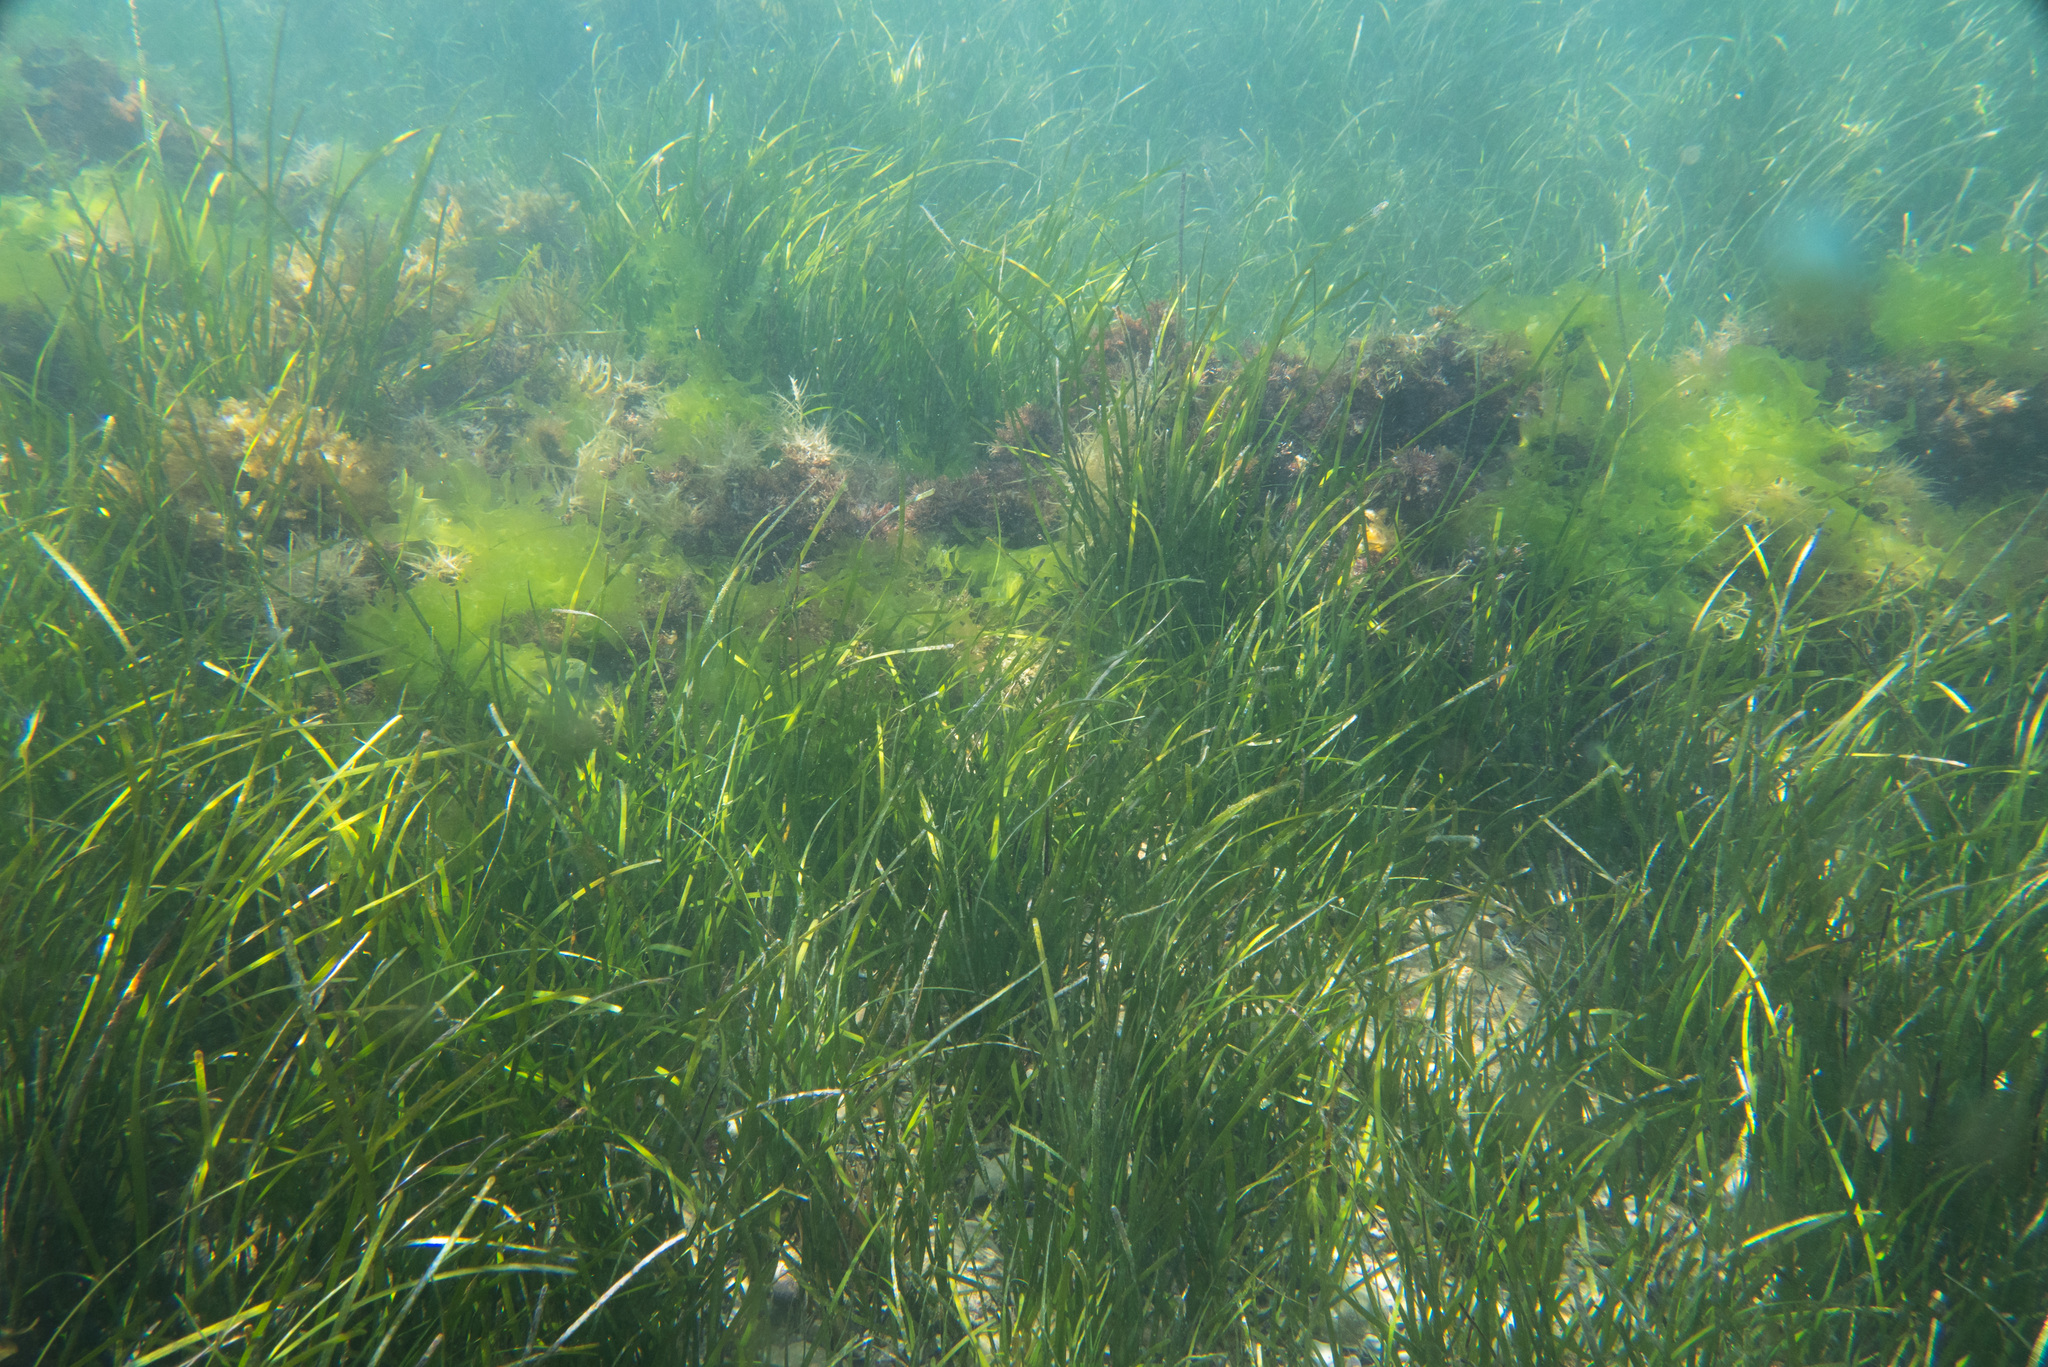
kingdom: Plantae
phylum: Tracheophyta
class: Liliopsida
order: Alismatales
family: Cymodoceaceae
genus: Cymodocea
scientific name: Cymodocea nodosa
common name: Slender seagrass
